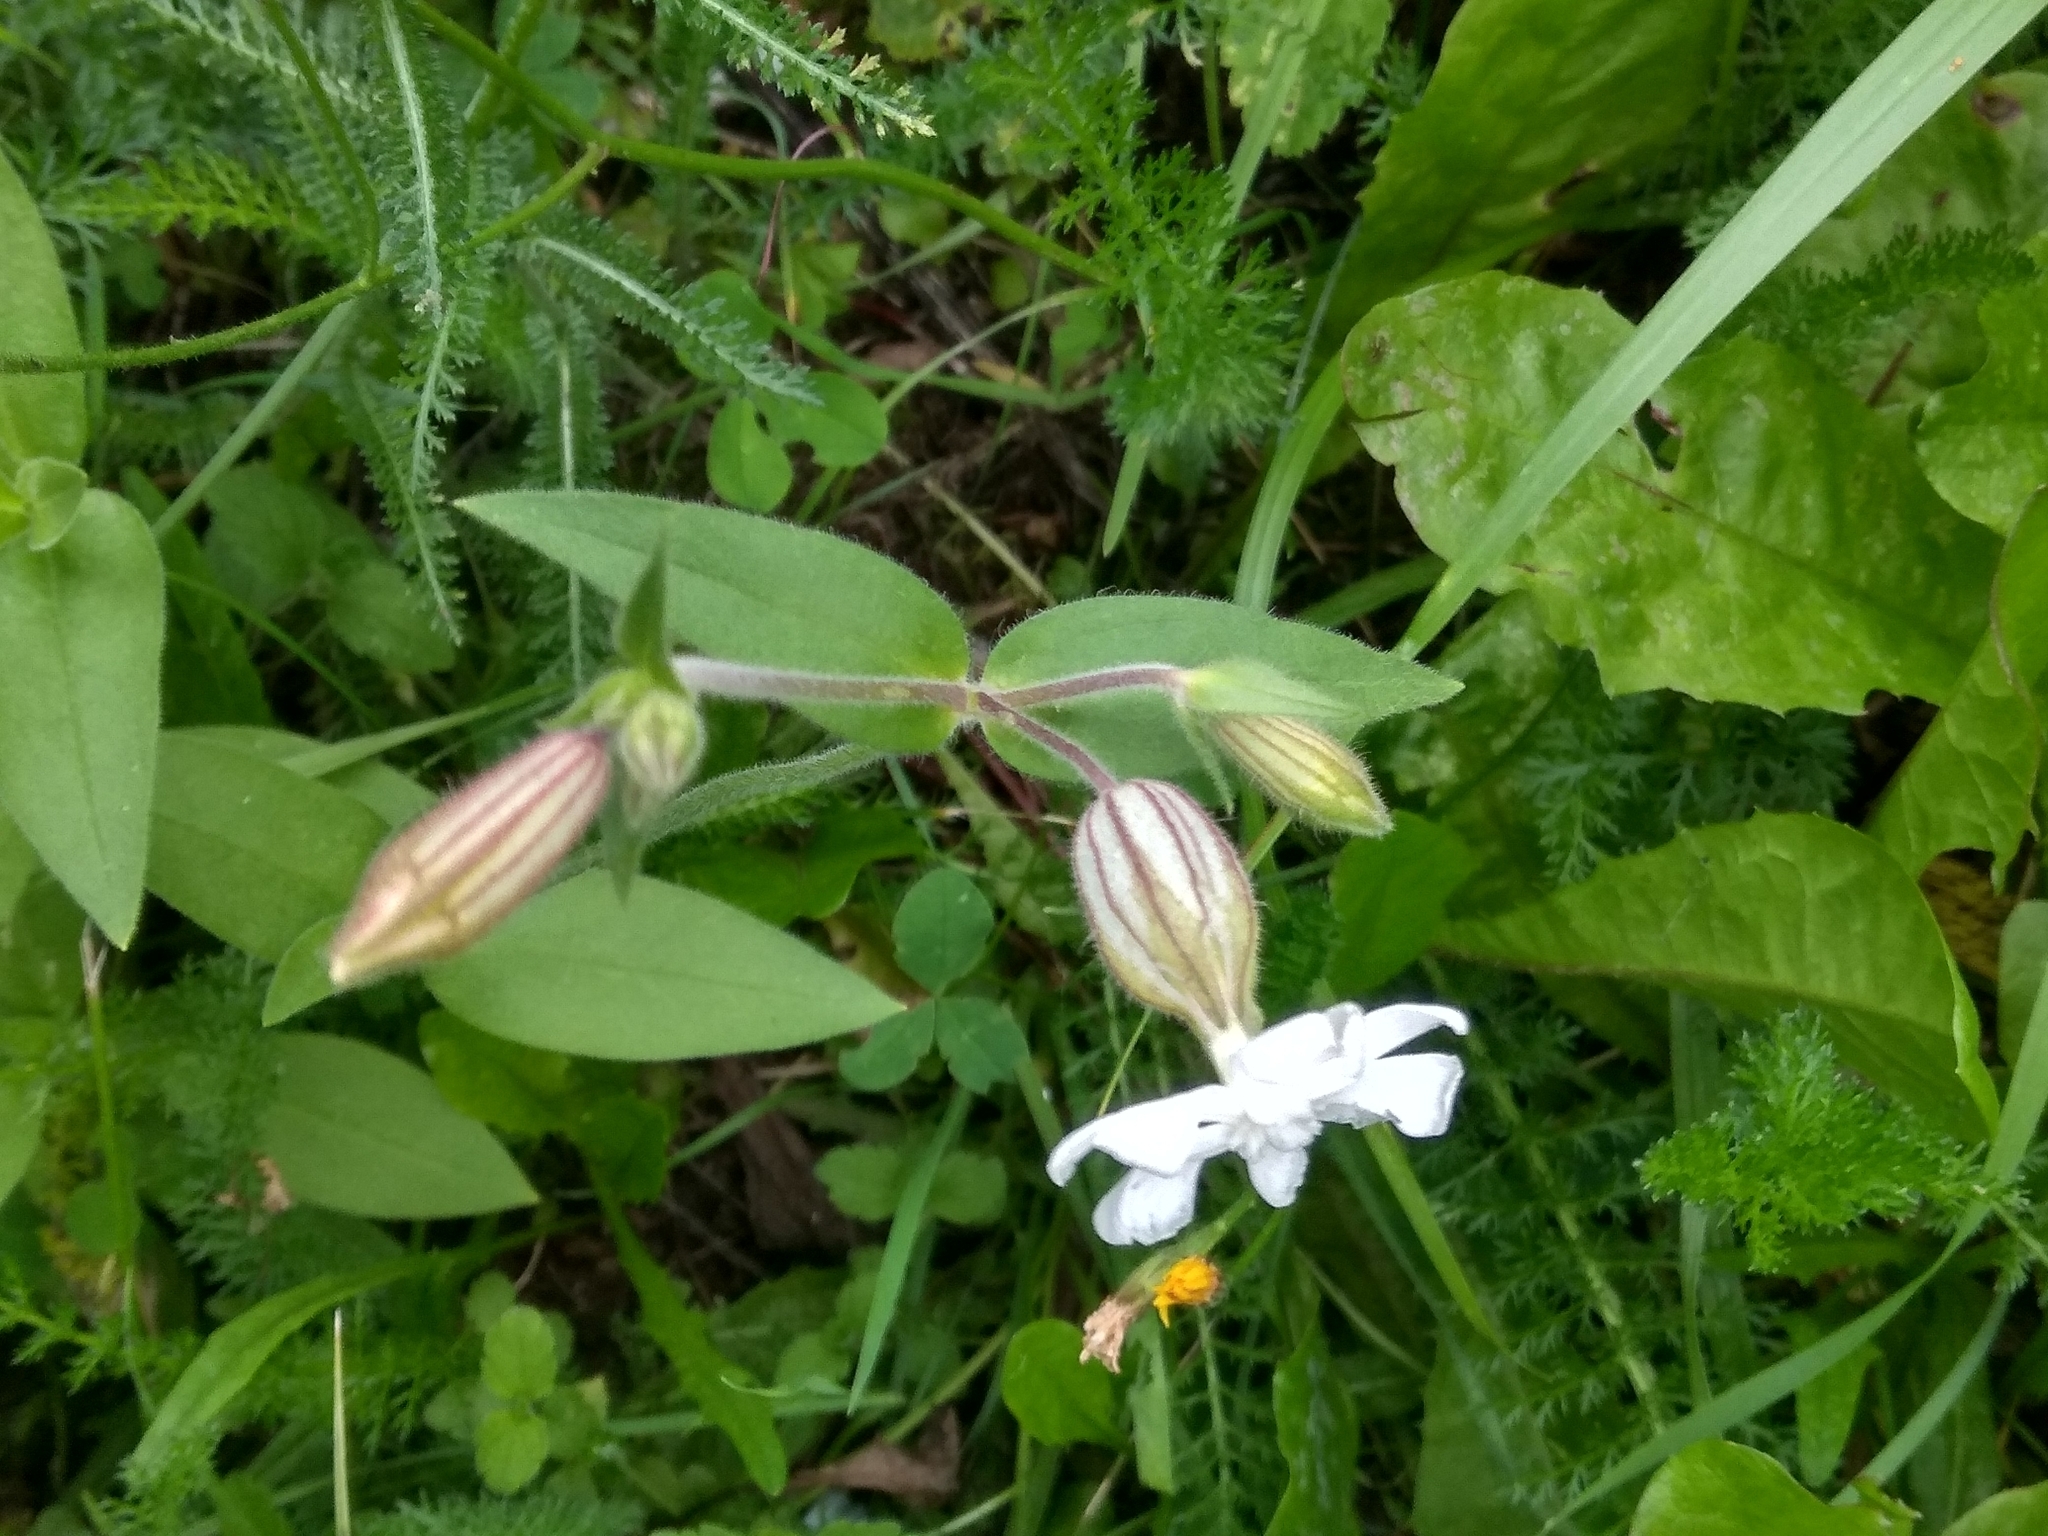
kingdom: Plantae
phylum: Tracheophyta
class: Magnoliopsida
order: Caryophyllales
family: Caryophyllaceae
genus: Silene
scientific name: Silene latifolia
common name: White campion
